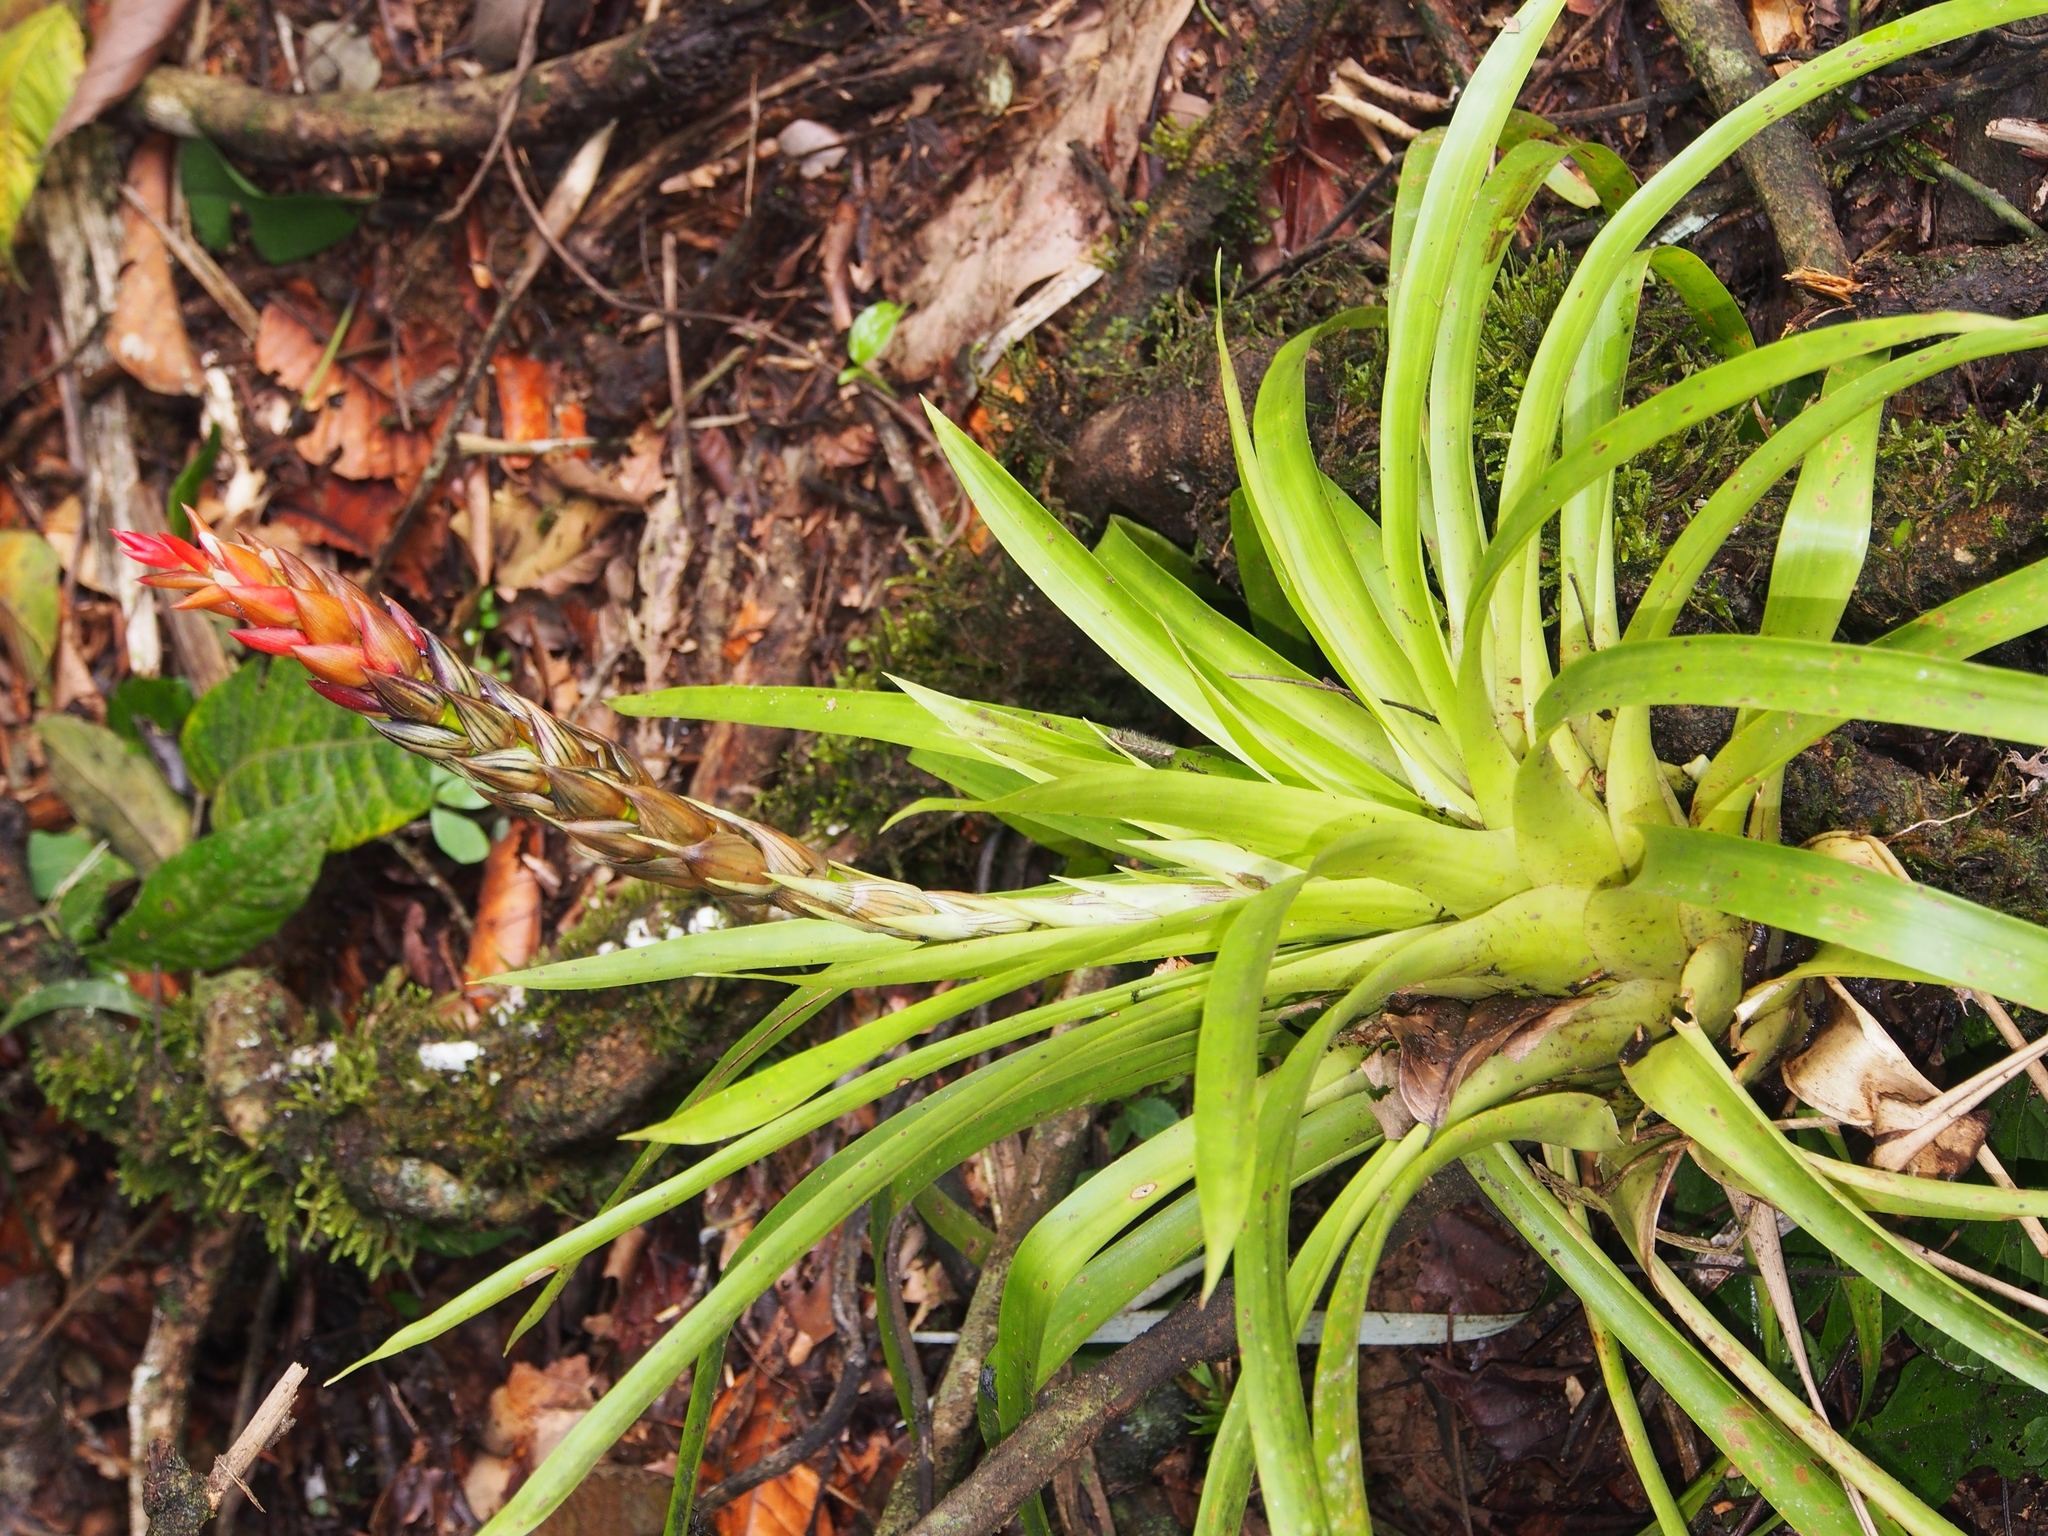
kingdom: Plantae
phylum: Tracheophyta
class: Liliopsida
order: Poales
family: Bromeliaceae
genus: Guzmania
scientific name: Guzmania monostachia
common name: West indian tufted airplant
